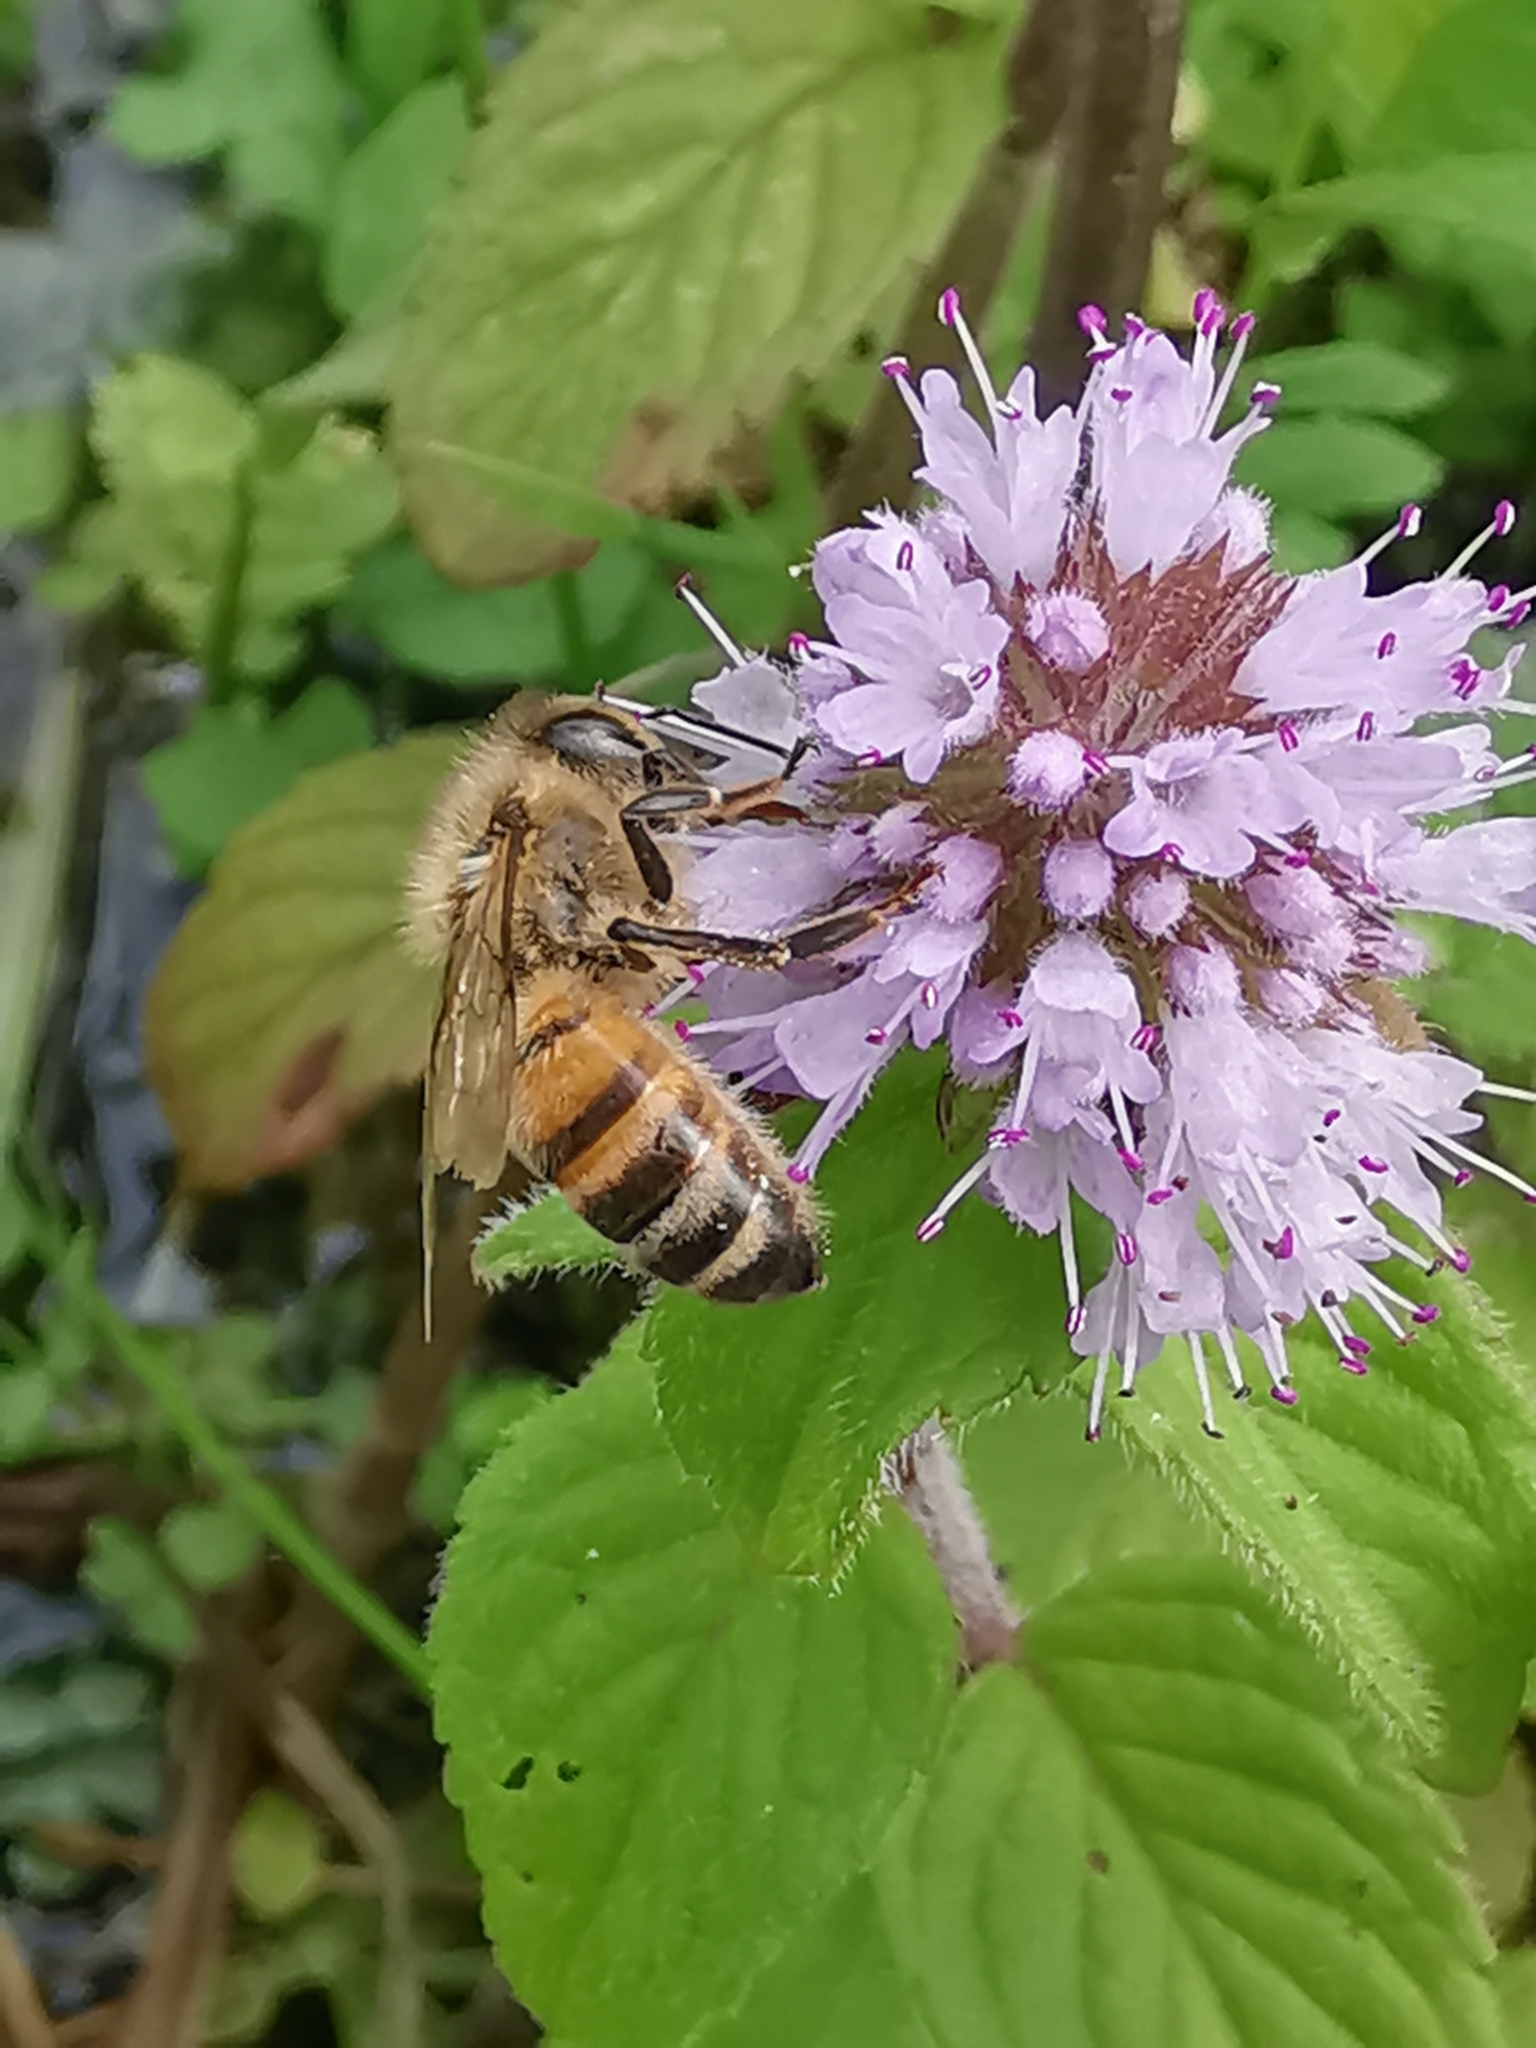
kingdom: Animalia
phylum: Arthropoda
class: Insecta
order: Hymenoptera
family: Apidae
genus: Apis
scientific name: Apis mellifera
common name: Honey bee
